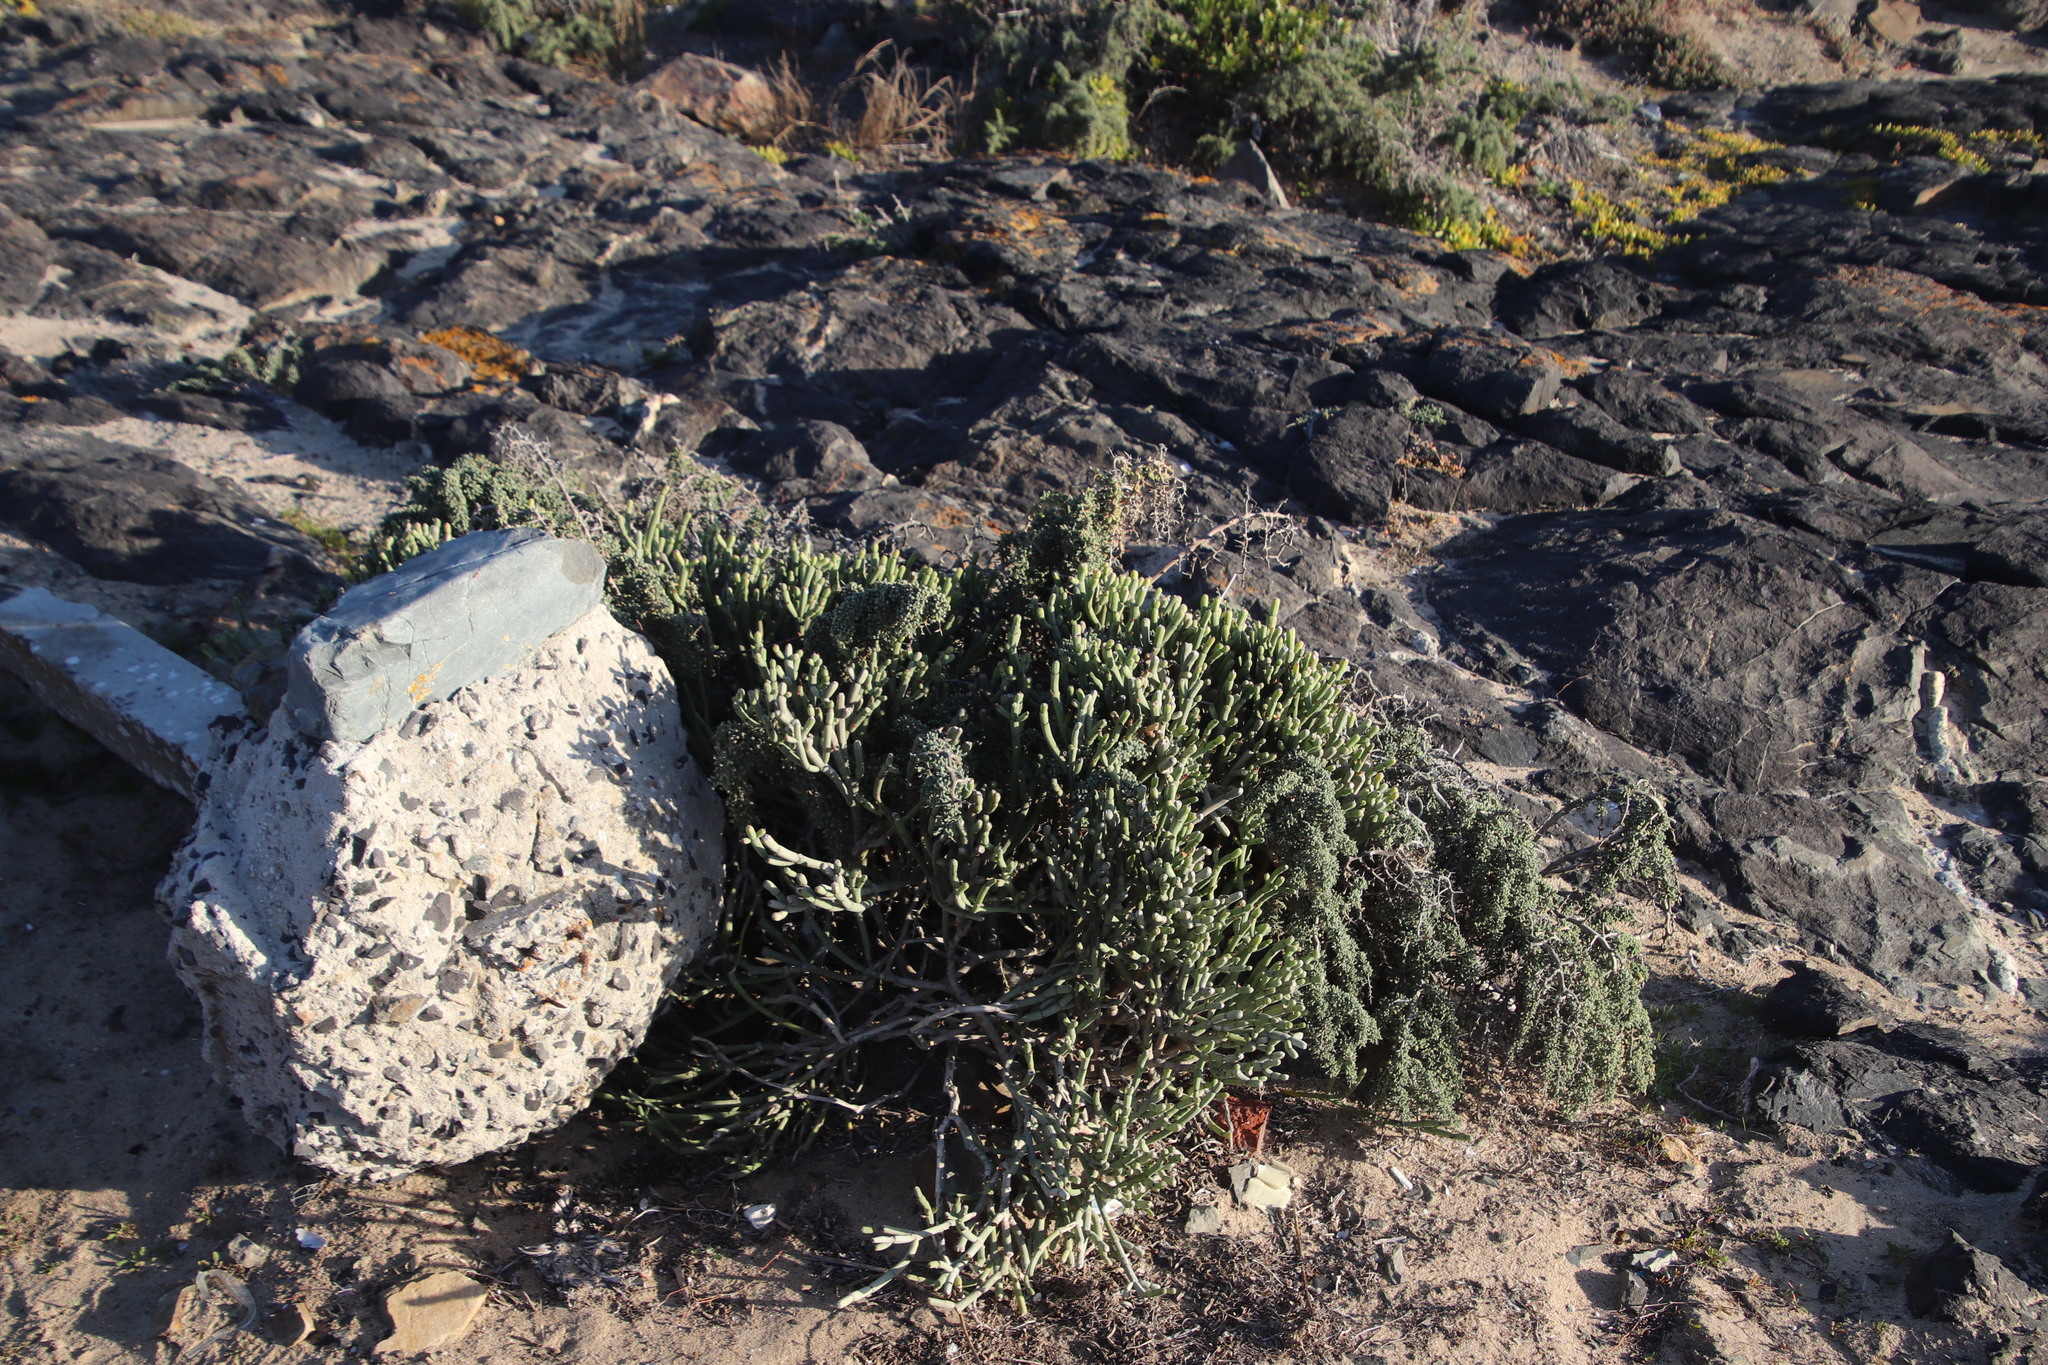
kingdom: Plantae
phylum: Tracheophyta
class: Magnoliopsida
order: Malpighiales
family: Euphorbiaceae
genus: Euphorbia
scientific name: Euphorbia burmanni
